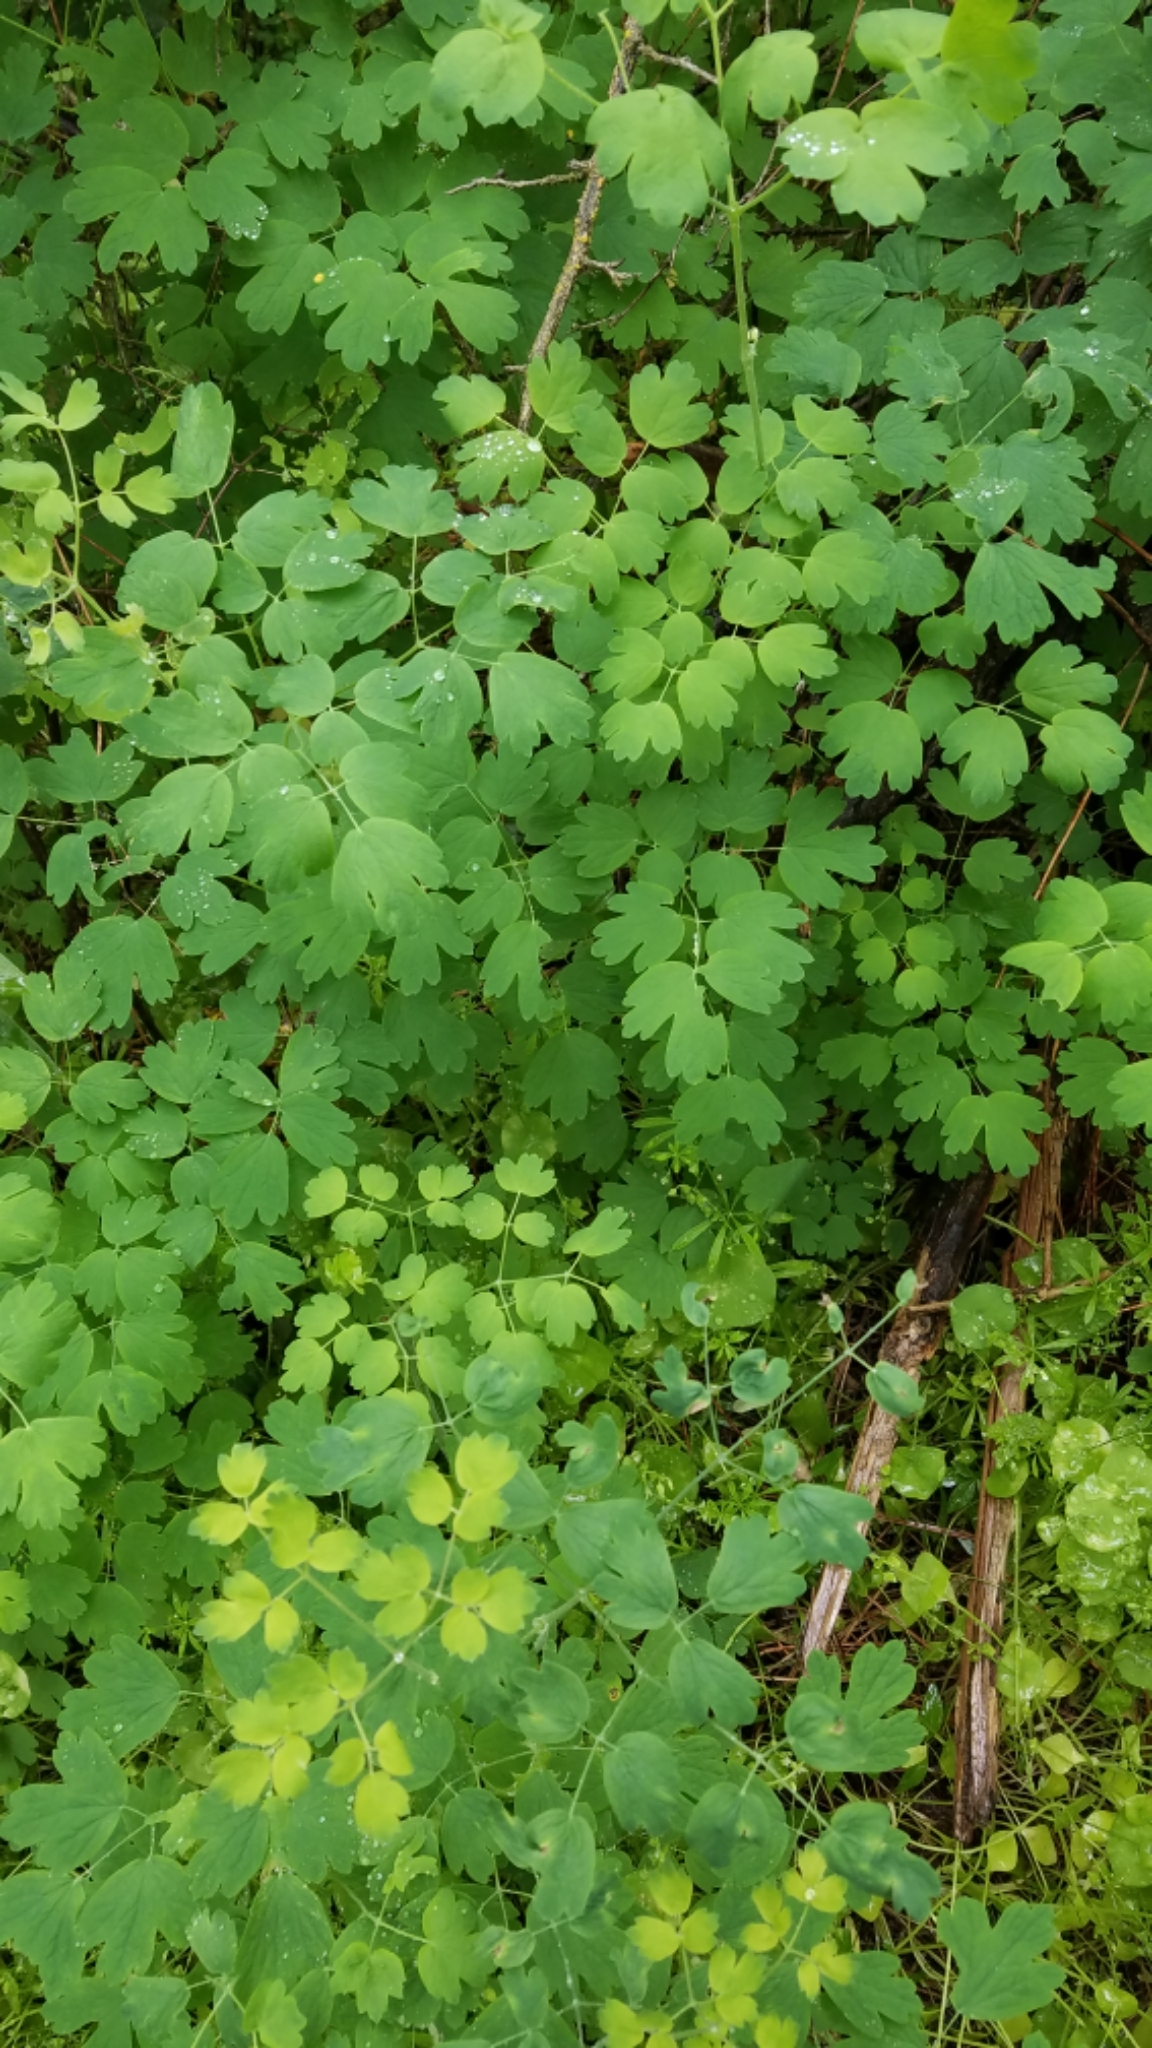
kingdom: Plantae
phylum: Tracheophyta
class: Magnoliopsida
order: Ranunculales
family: Ranunculaceae
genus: Thalictrum
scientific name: Thalictrum occidentale
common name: Western meadow-rue
